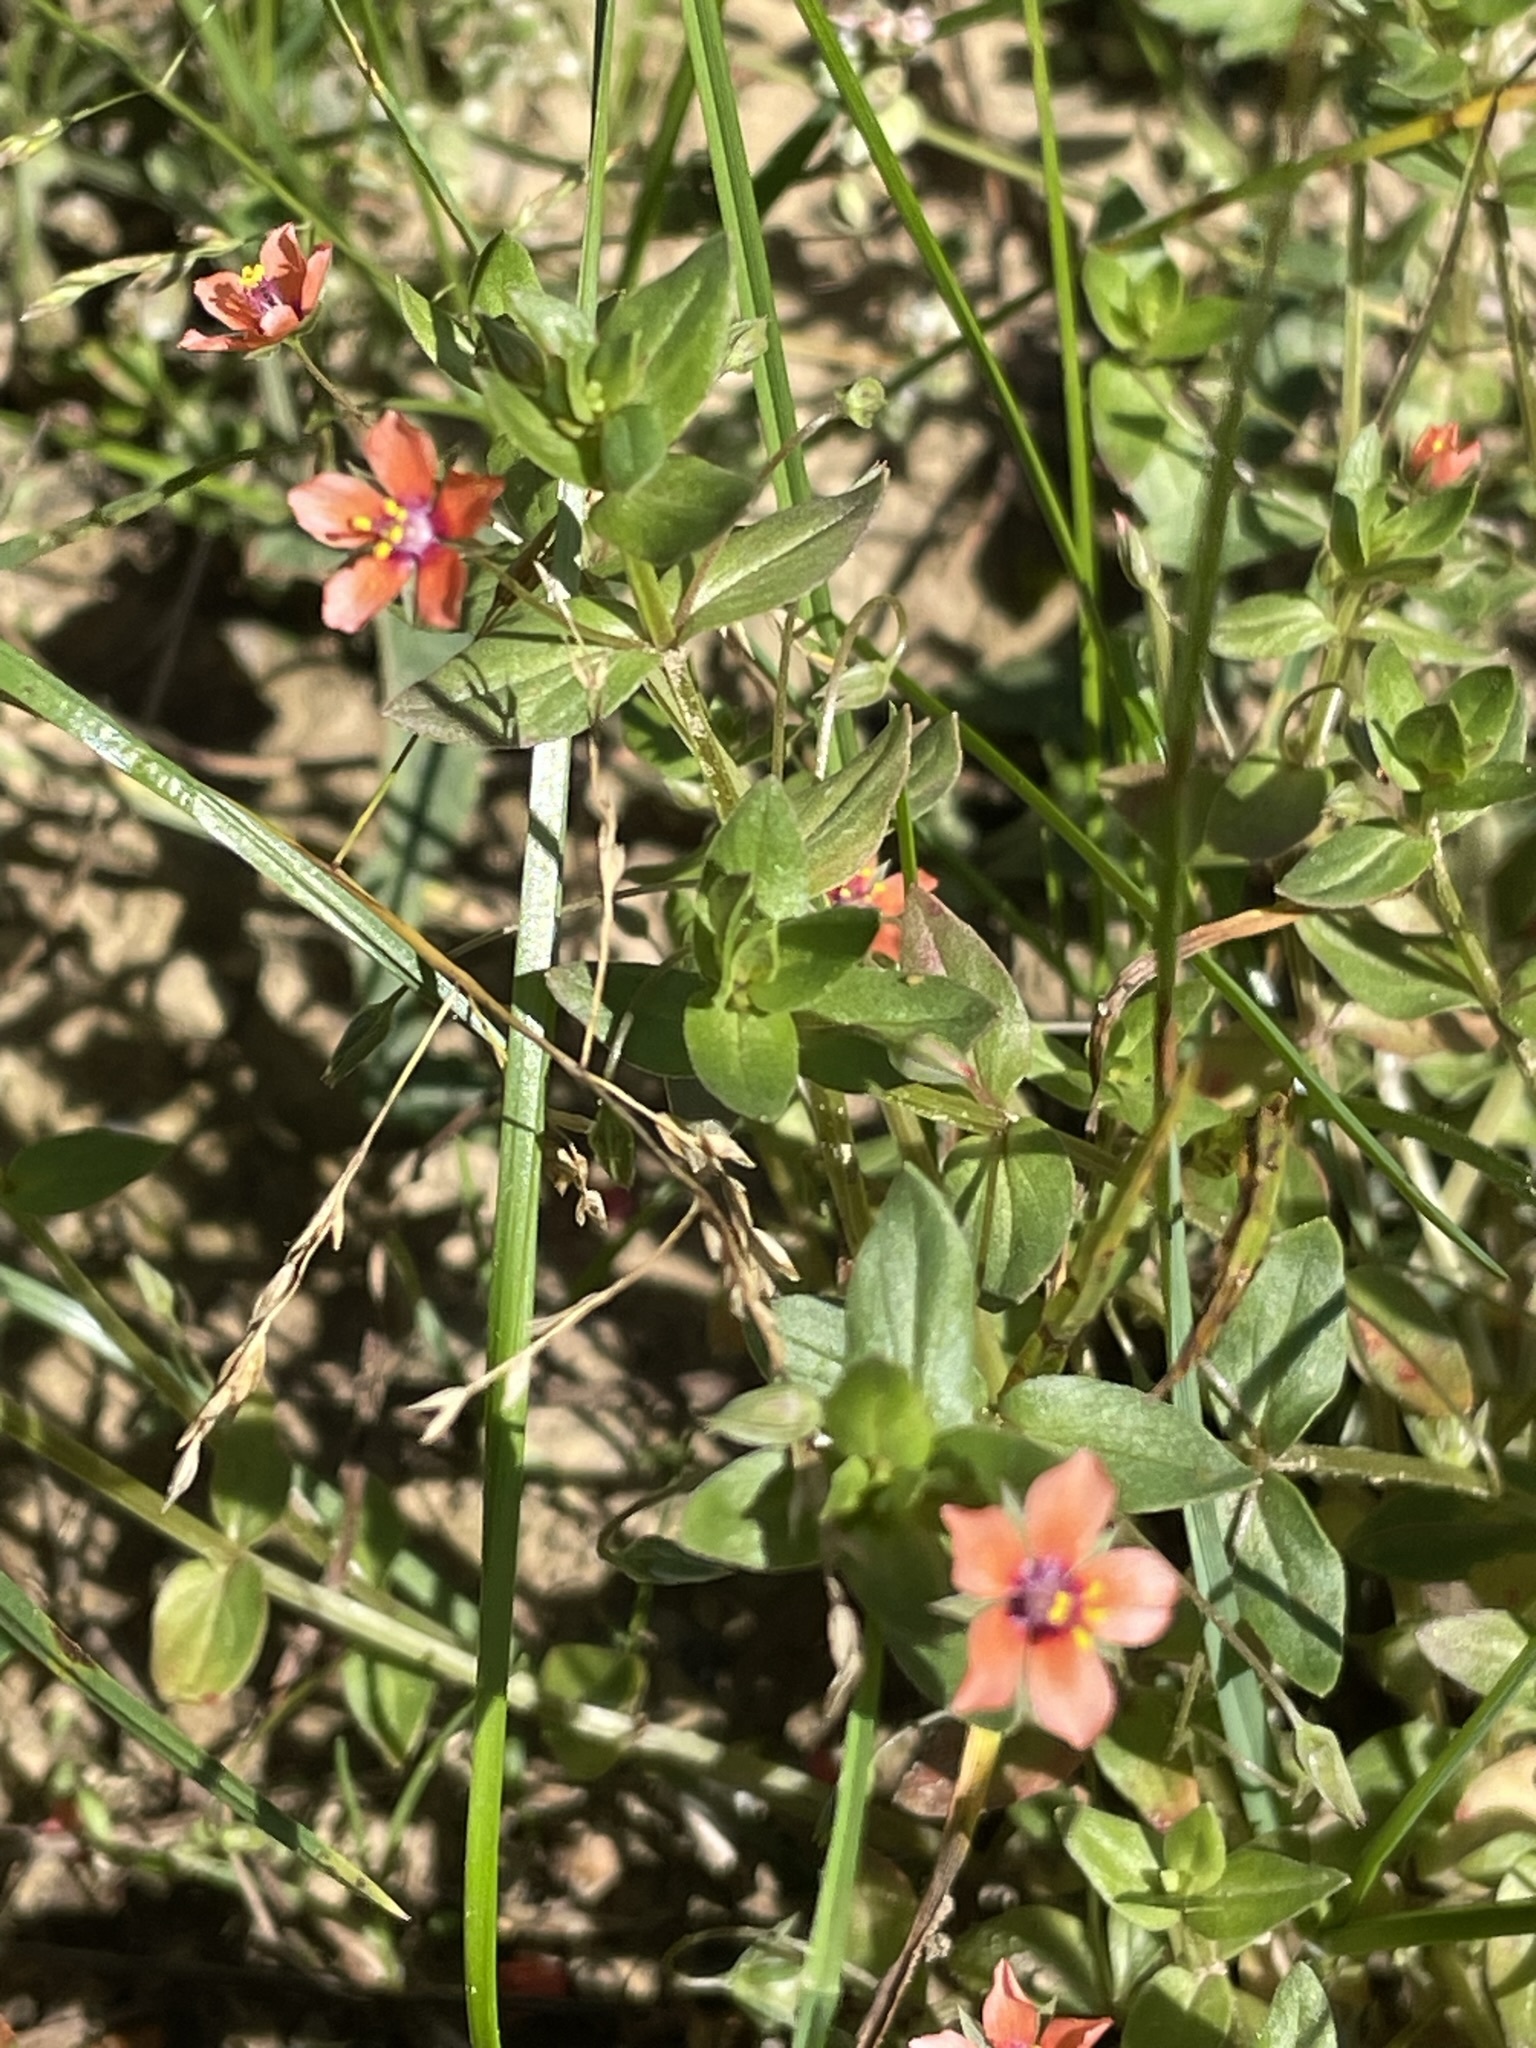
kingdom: Plantae
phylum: Tracheophyta
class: Magnoliopsida
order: Ericales
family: Primulaceae
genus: Lysimachia
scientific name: Lysimachia arvensis
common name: Scarlet pimpernel
